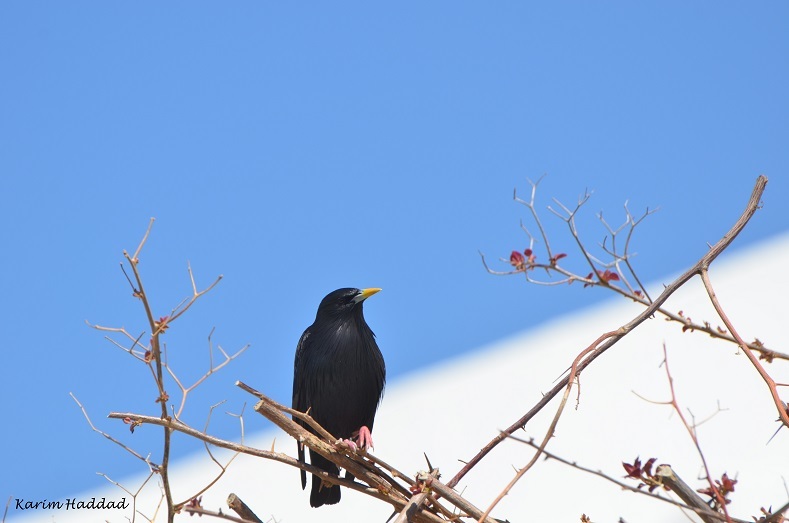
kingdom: Animalia
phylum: Chordata
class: Aves
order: Passeriformes
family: Sturnidae
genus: Sturnus
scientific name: Sturnus unicolor
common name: Spotless starling
